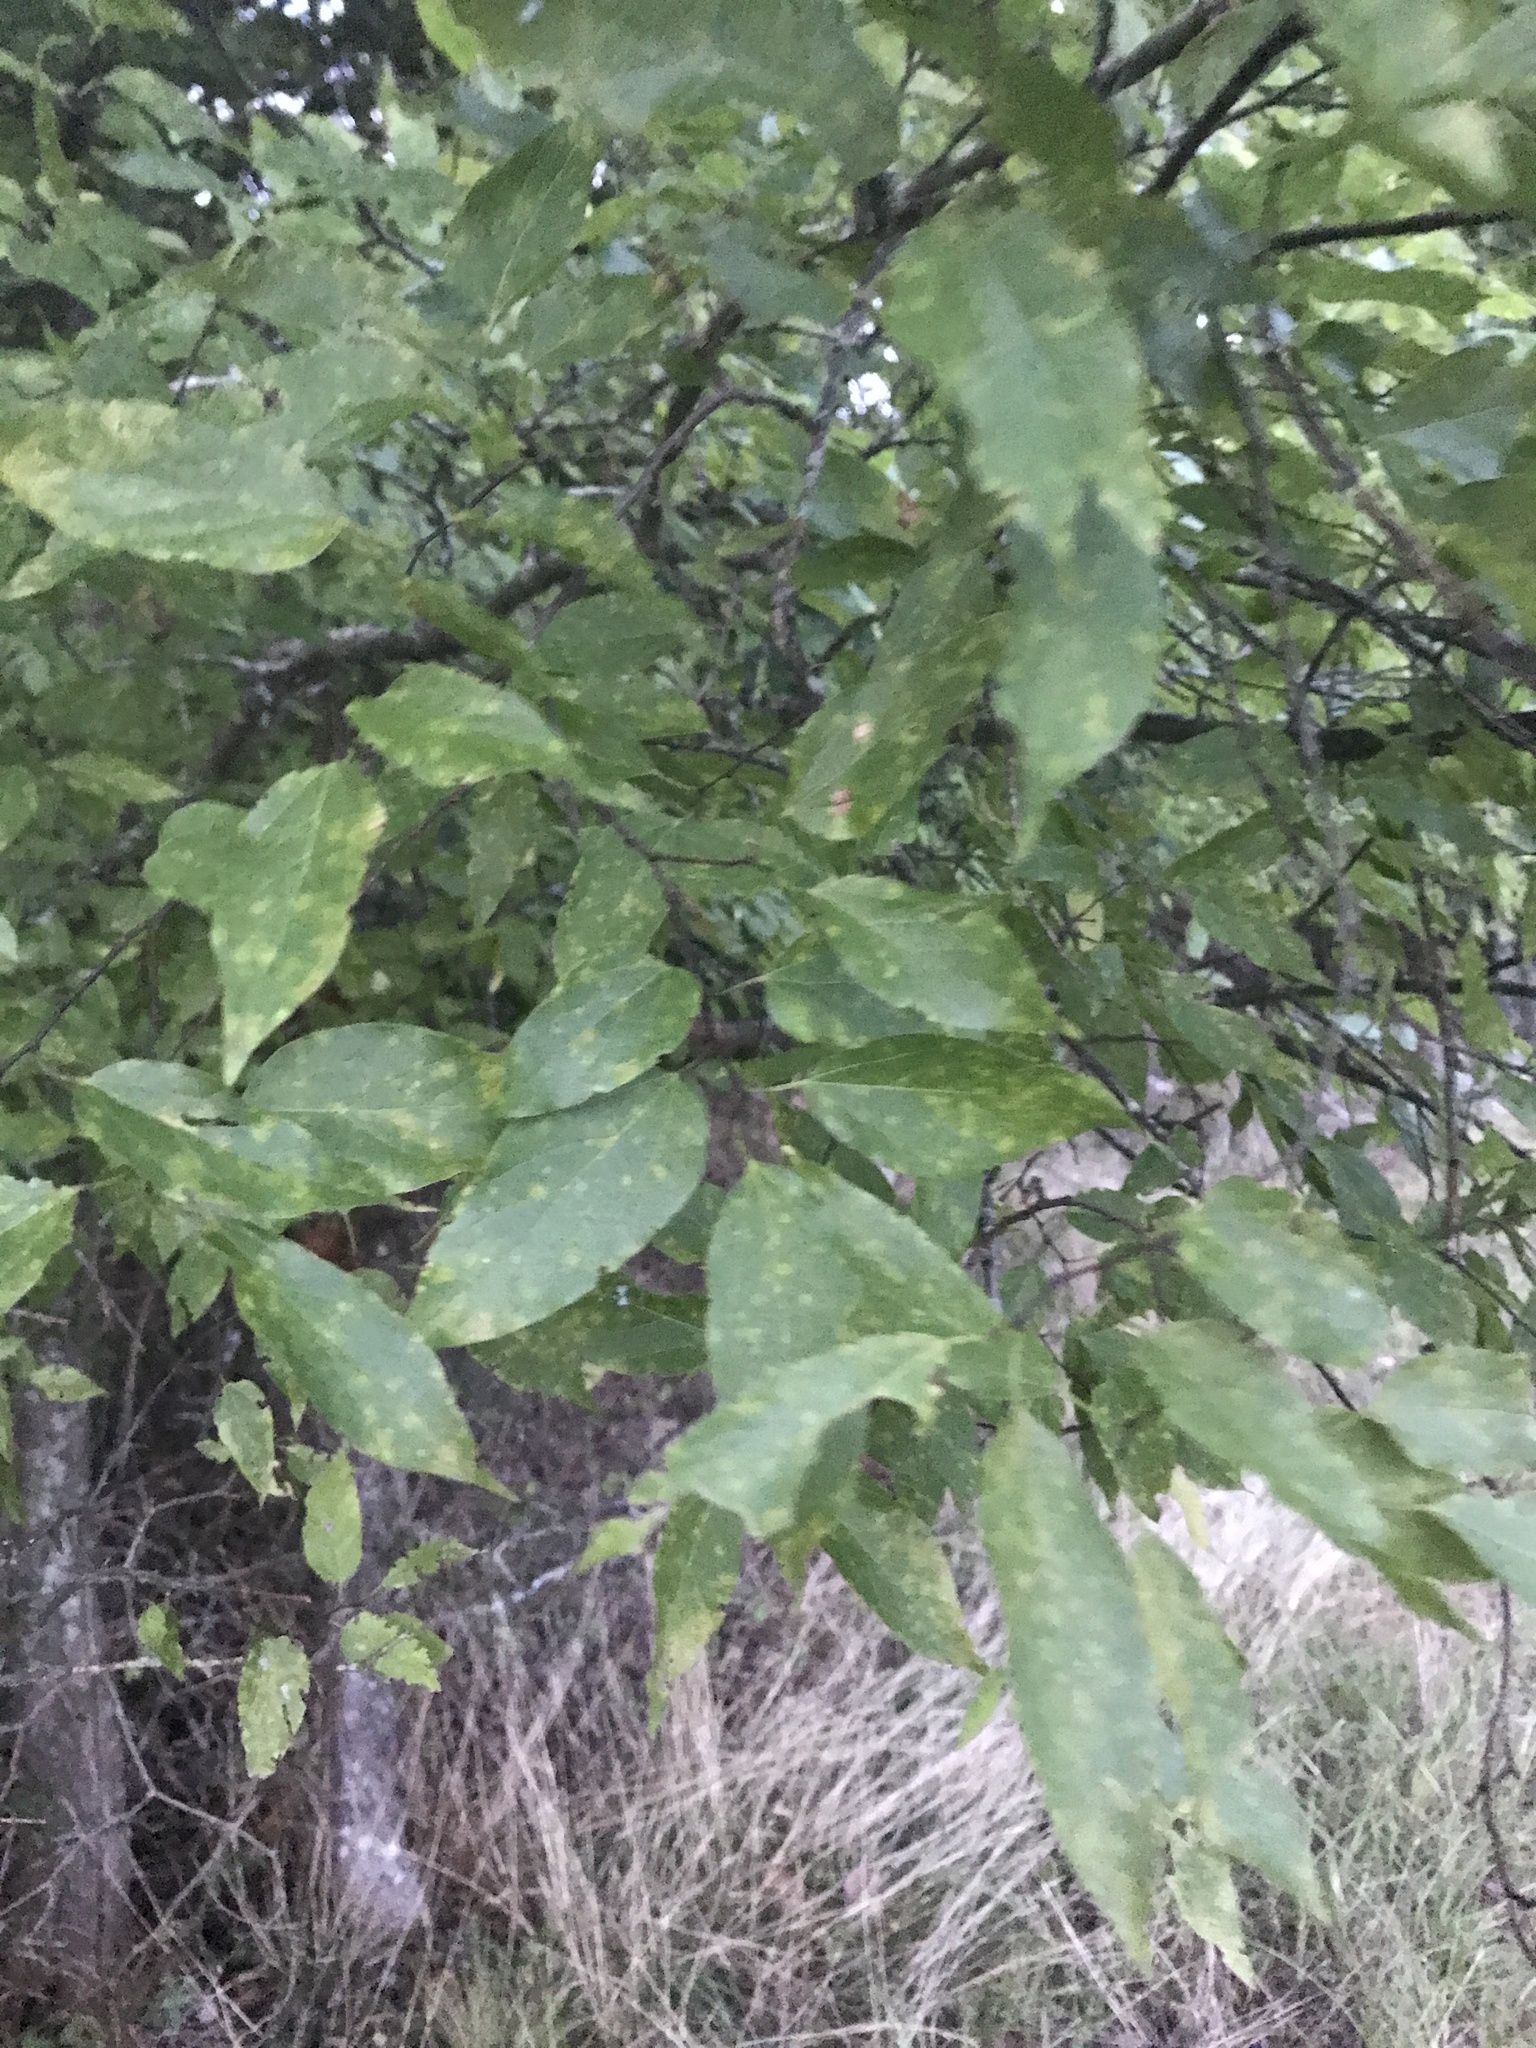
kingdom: Plantae
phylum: Tracheophyta
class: Magnoliopsida
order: Rosales
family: Cannabaceae
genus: Celtis
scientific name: Celtis laevigata
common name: Sugarberry
